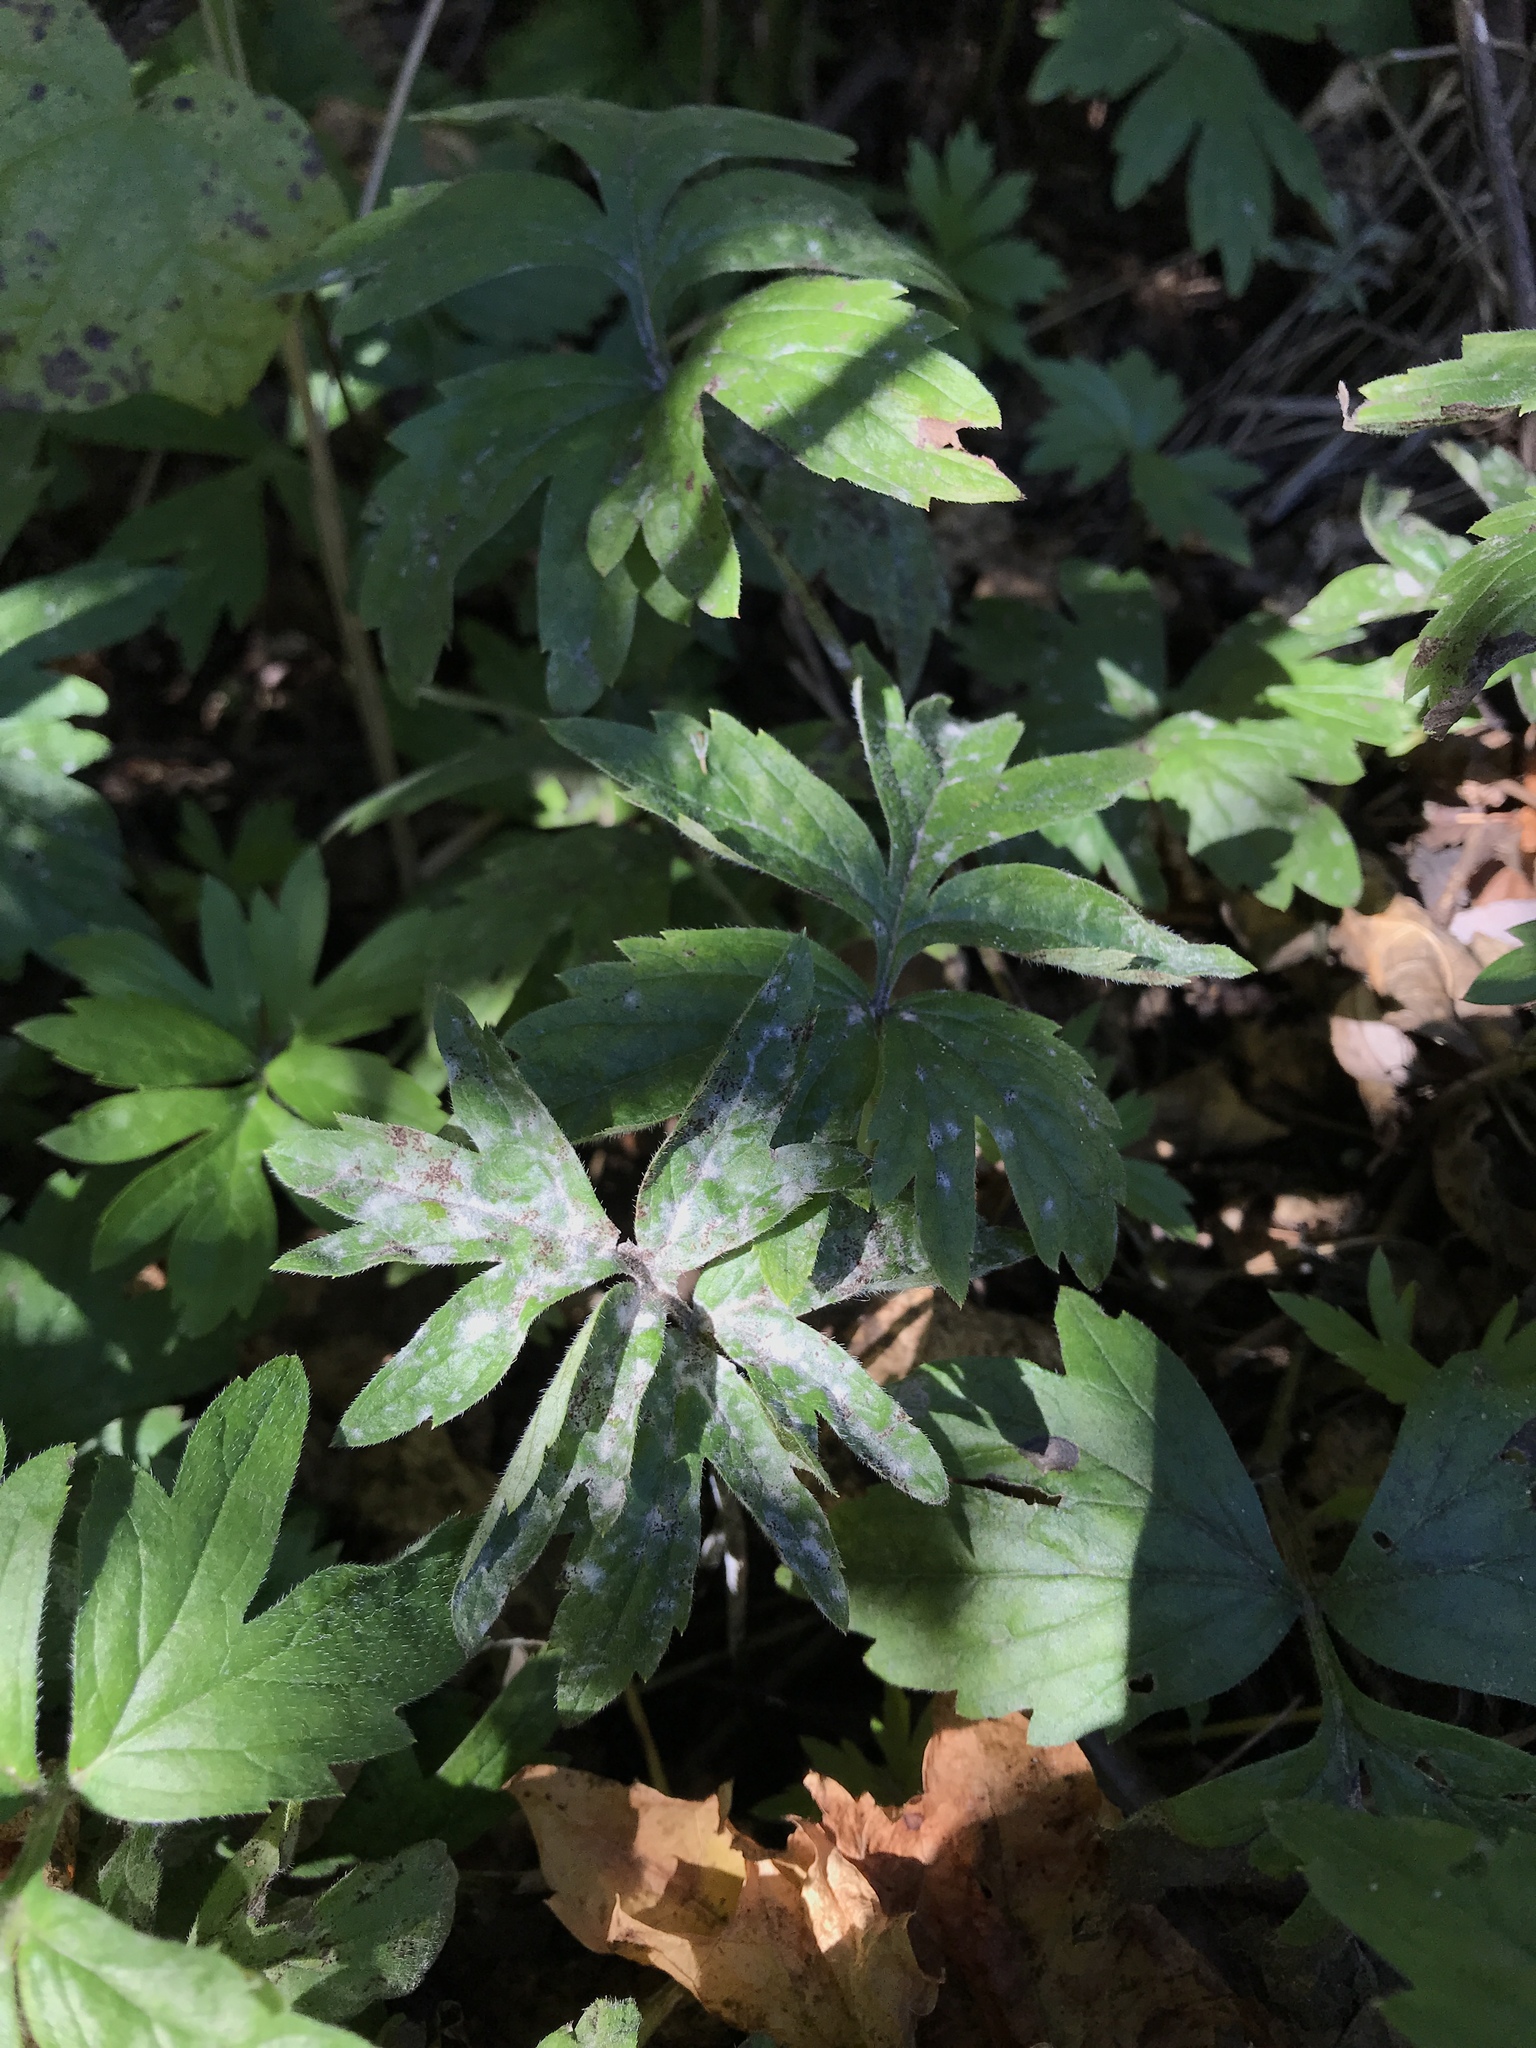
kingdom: Plantae
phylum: Tracheophyta
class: Magnoliopsida
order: Boraginales
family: Hydrophyllaceae
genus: Hydrophyllum
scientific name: Hydrophyllum virginianum
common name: Virginia waterleaf
